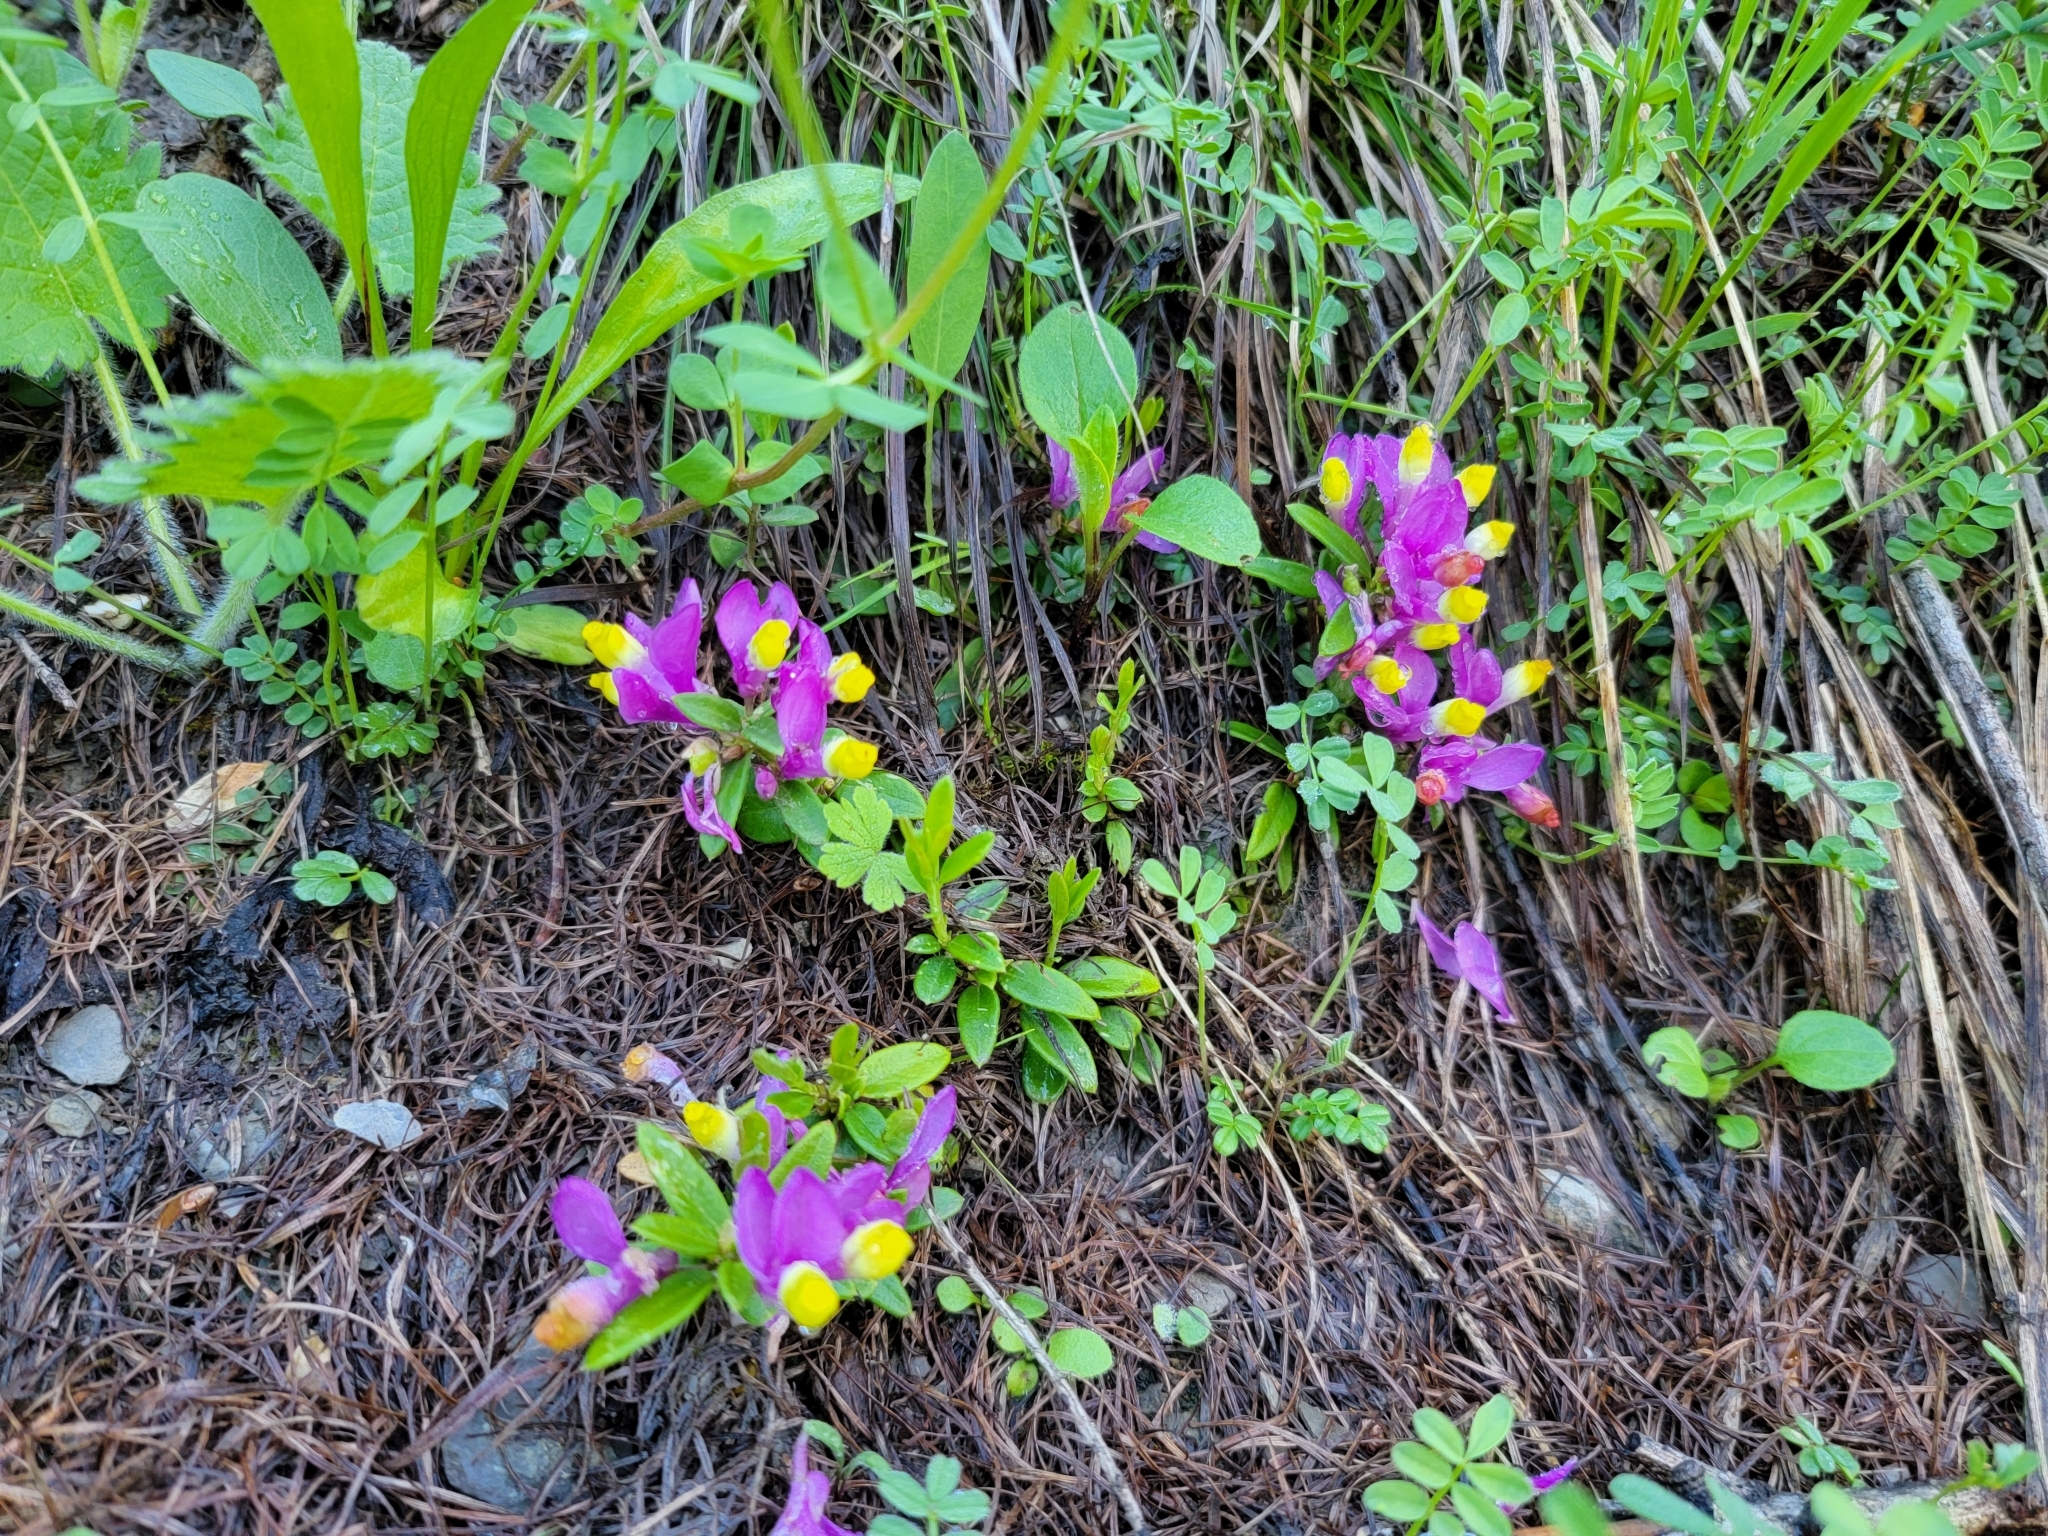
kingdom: Plantae
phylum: Tracheophyta
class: Magnoliopsida
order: Fabales
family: Polygalaceae
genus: Polygaloides
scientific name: Polygaloides chamaebuxus
